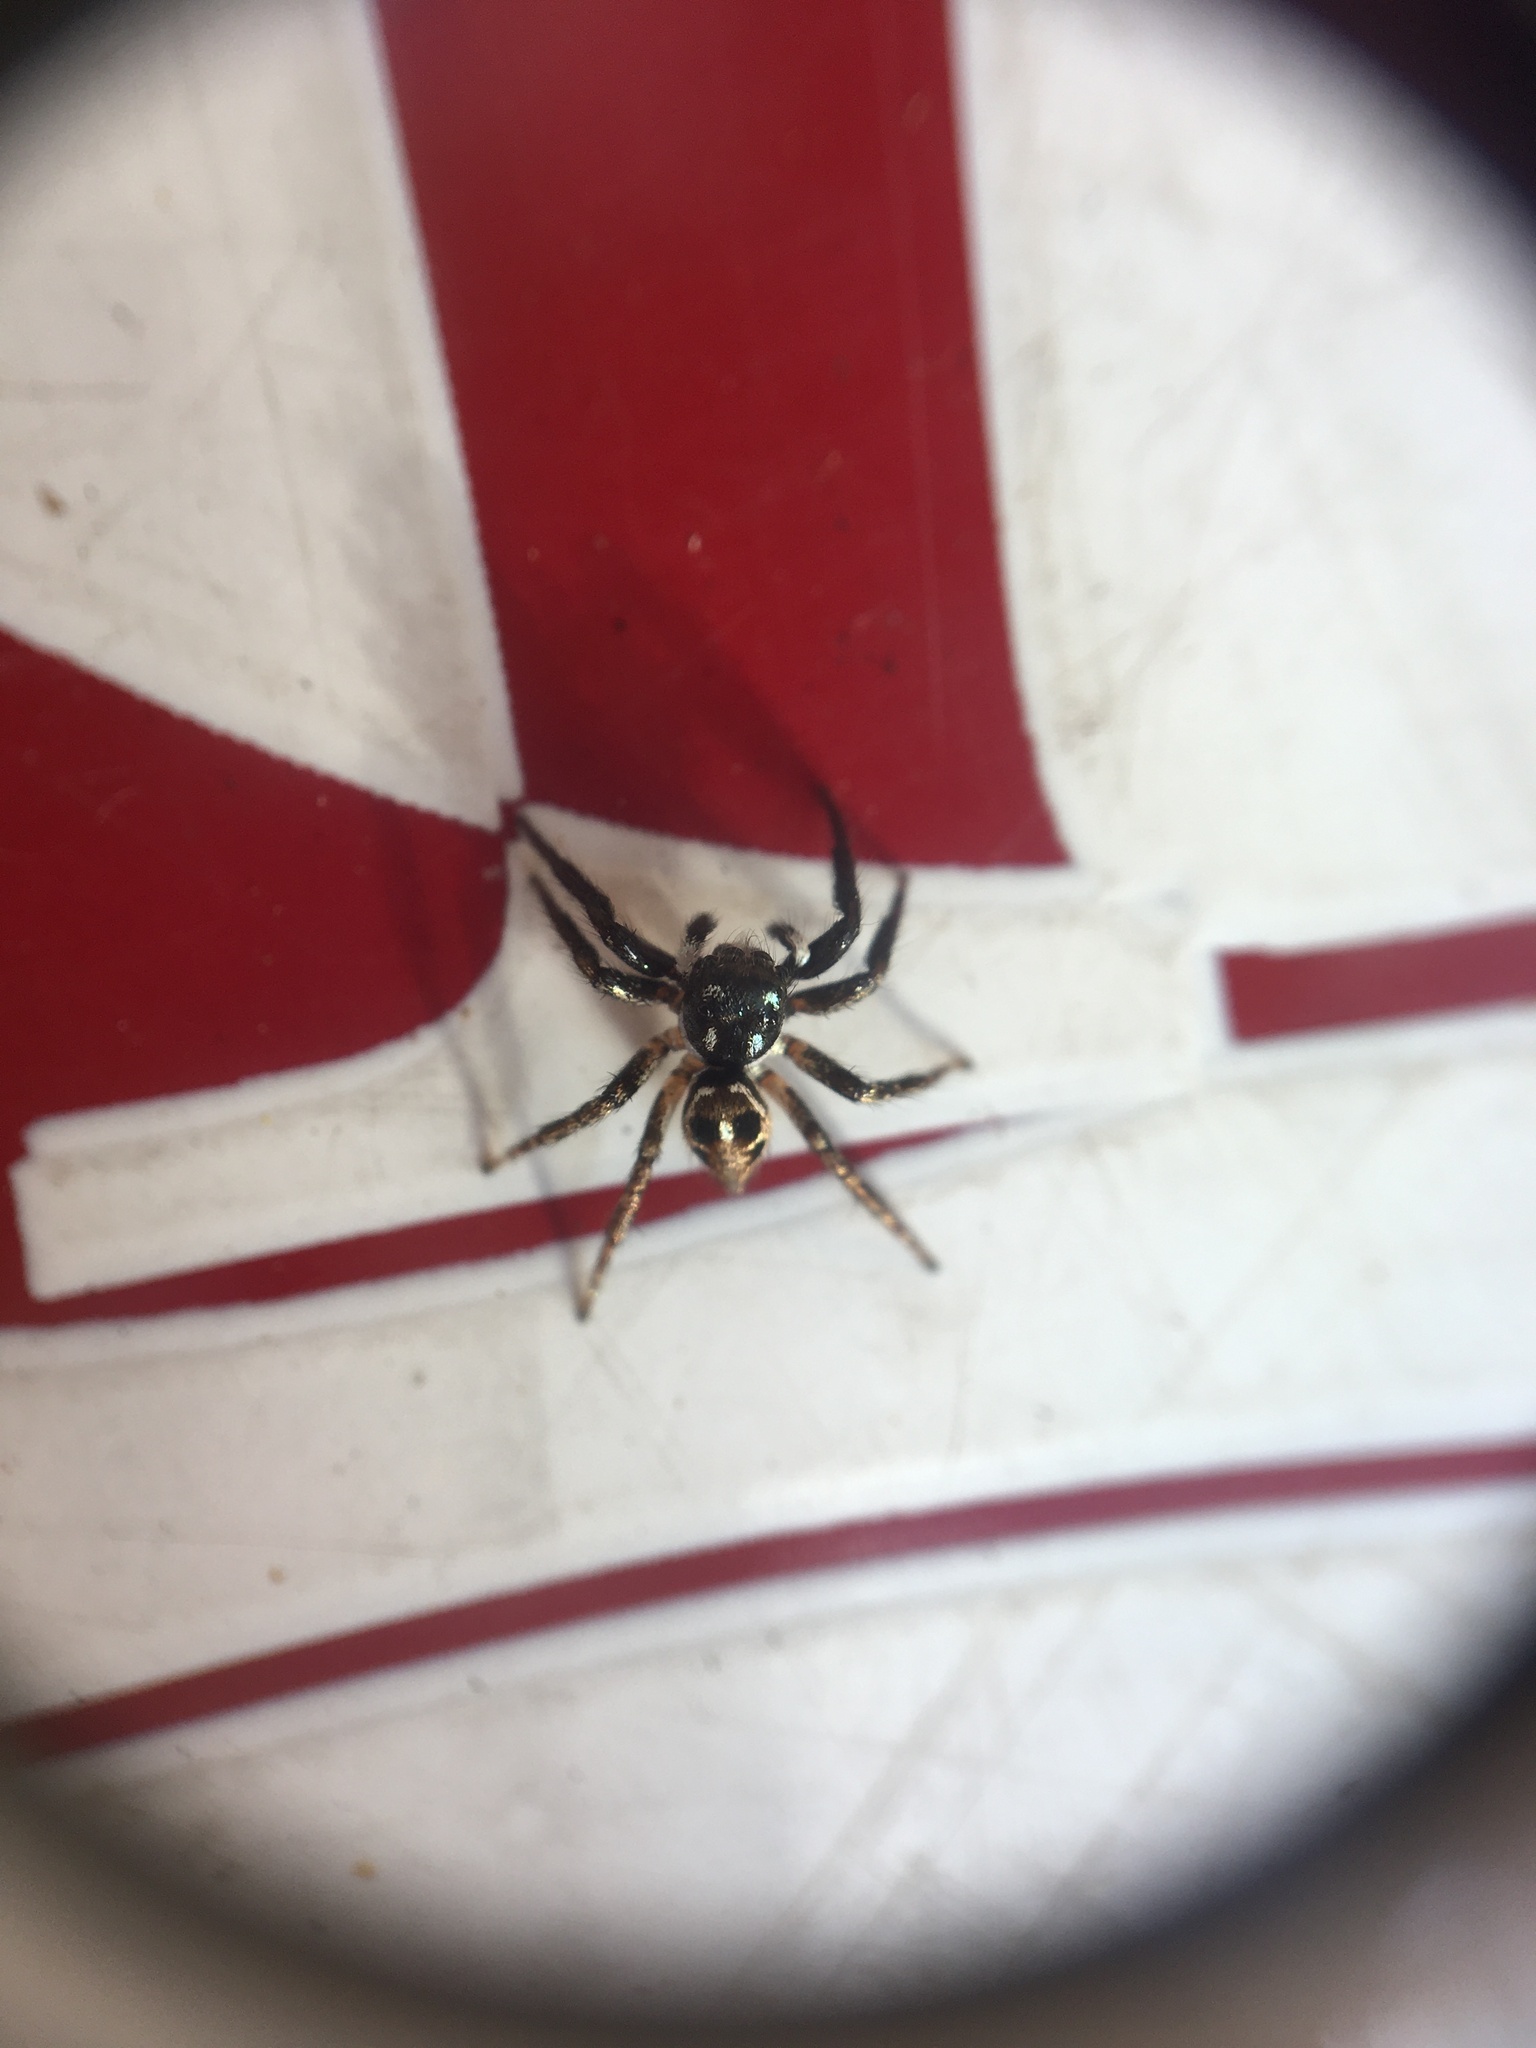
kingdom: Animalia
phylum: Arthropoda
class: Arachnida
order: Araneae
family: Salticidae
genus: Anasaitis
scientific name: Anasaitis canosa
